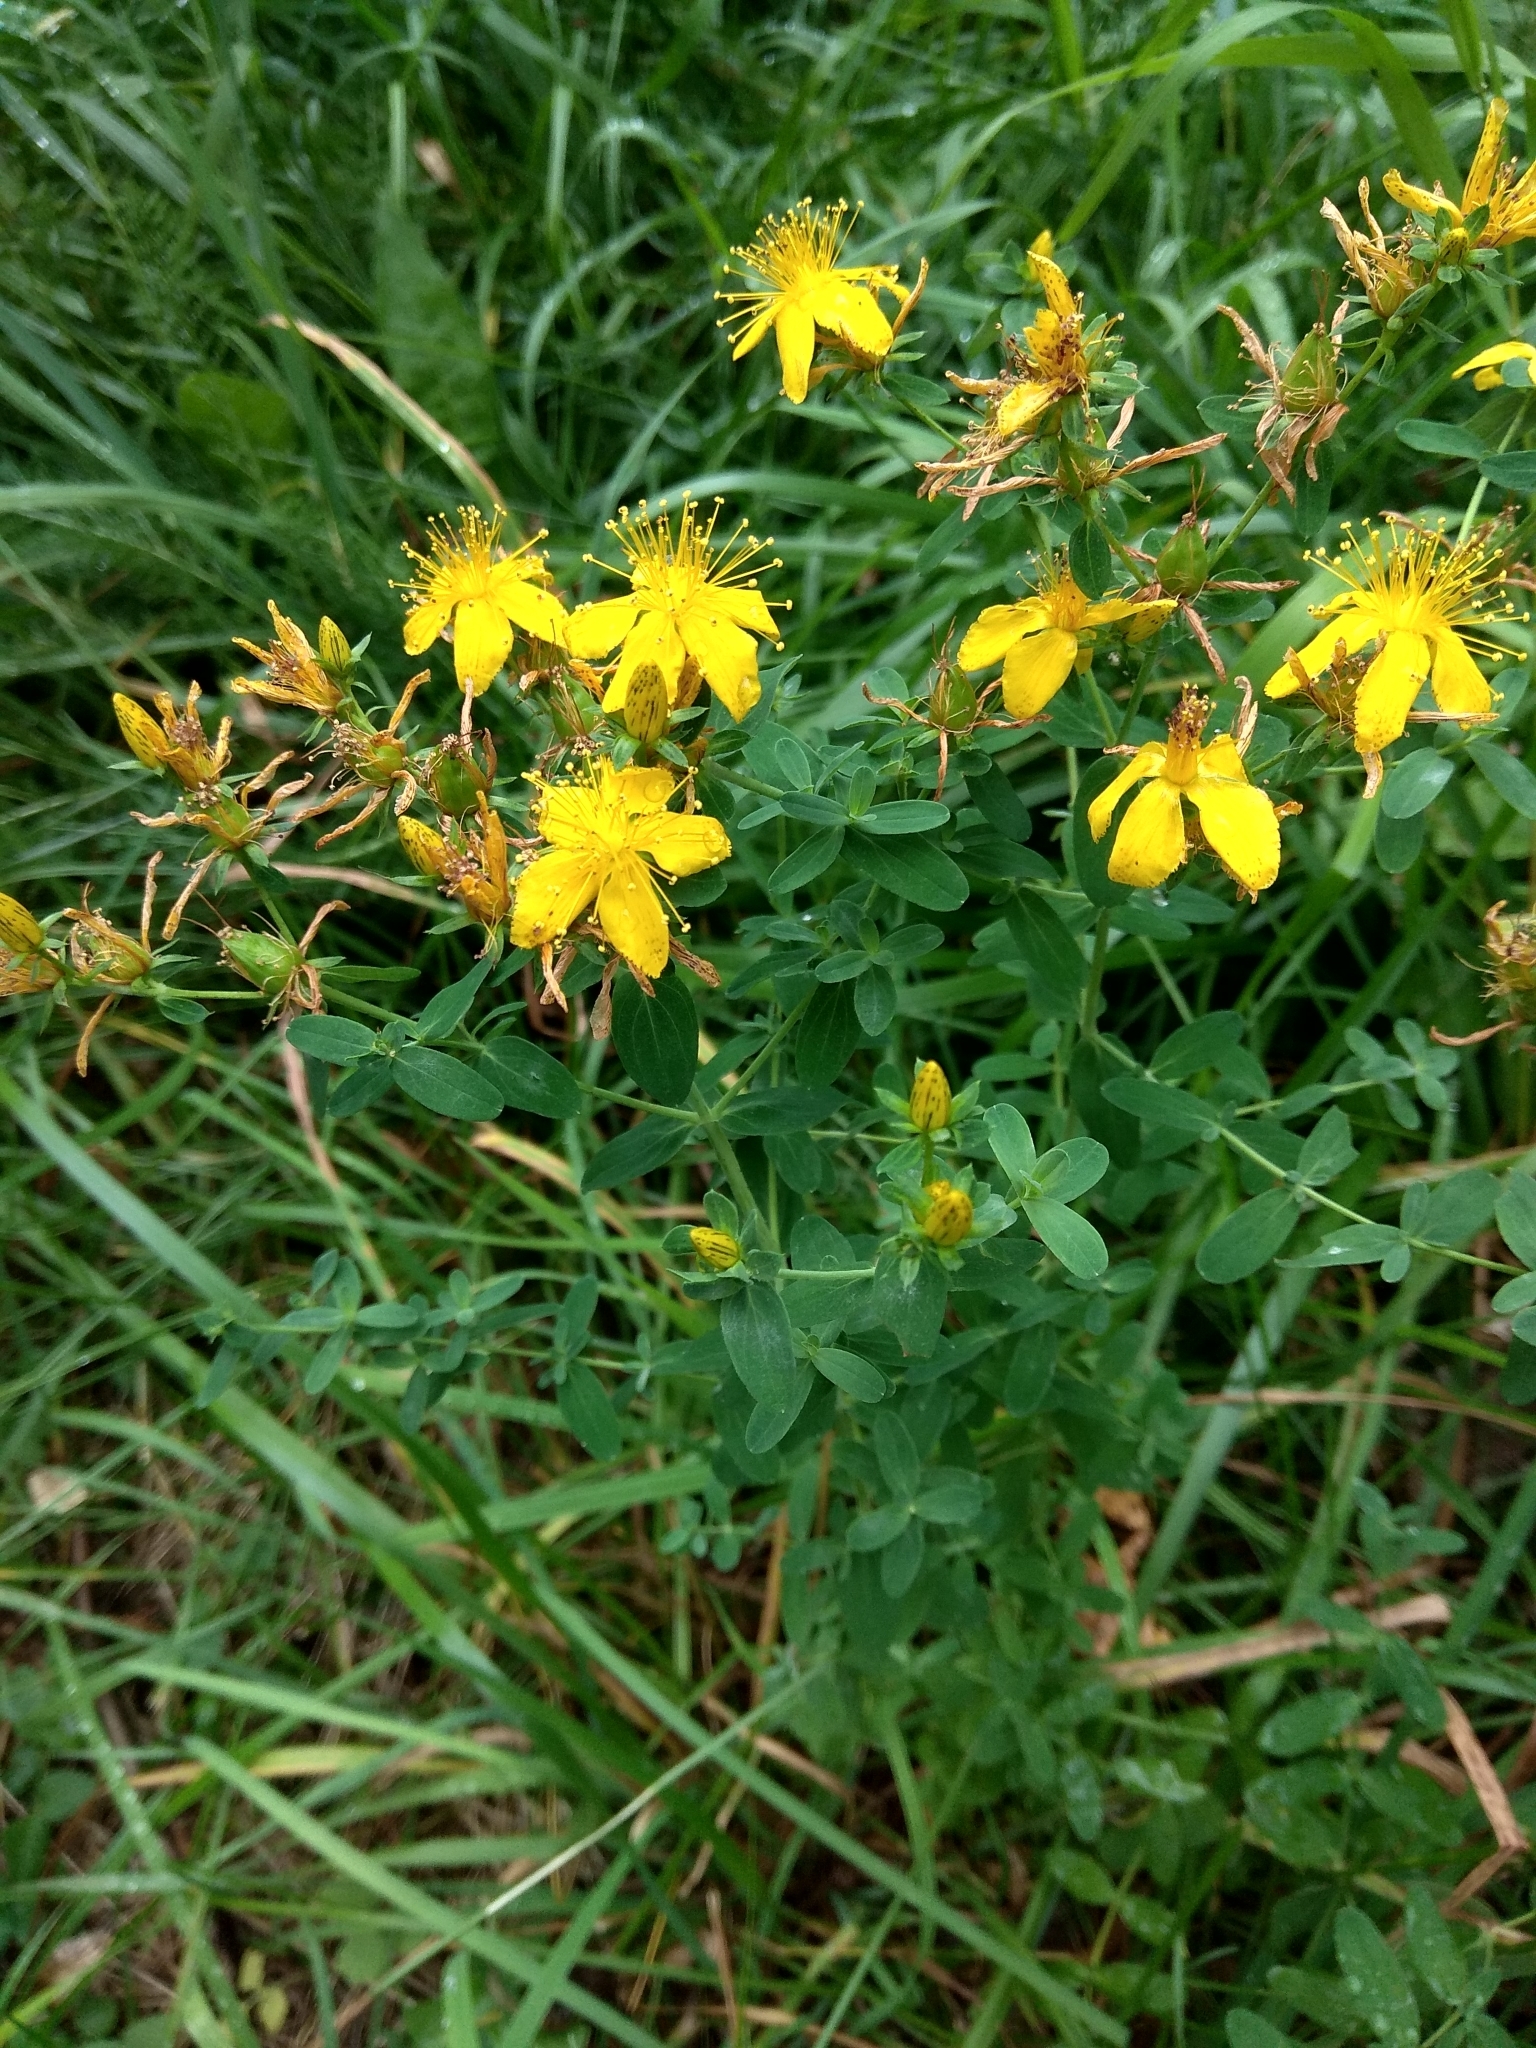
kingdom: Plantae
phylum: Tracheophyta
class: Magnoliopsida
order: Malpighiales
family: Hypericaceae
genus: Hypericum
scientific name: Hypericum perforatum
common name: Common st. johnswort
